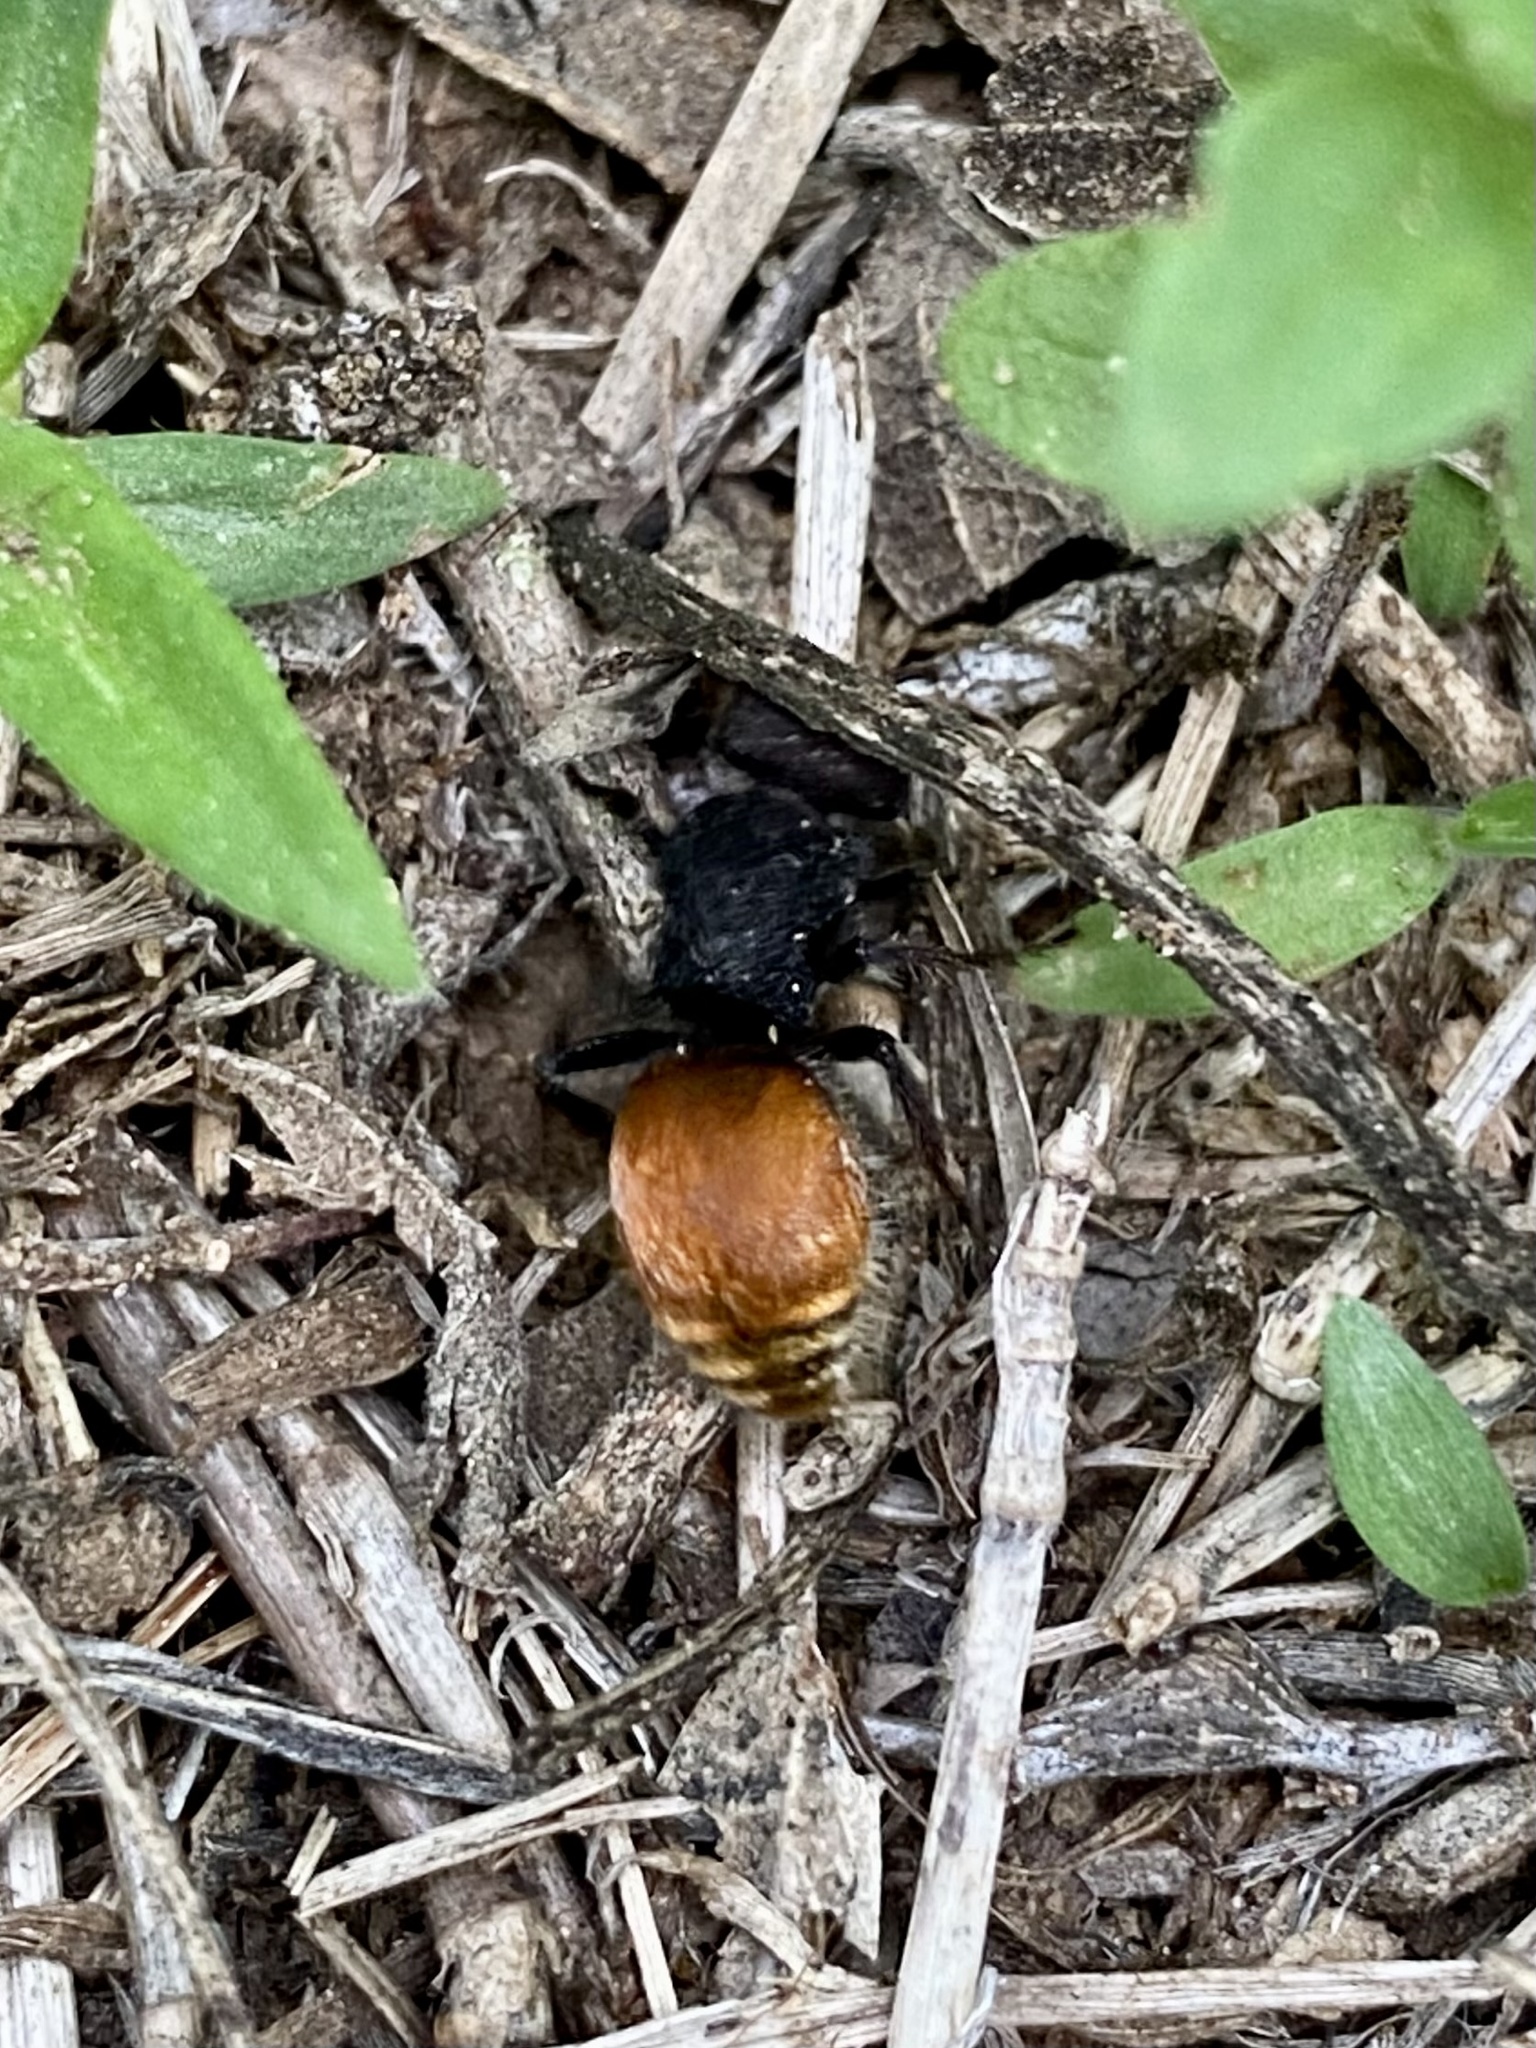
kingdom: Animalia
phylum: Arthropoda
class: Insecta
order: Hymenoptera
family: Mutillidae
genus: Pseudomethoca
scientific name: Pseudomethoca
